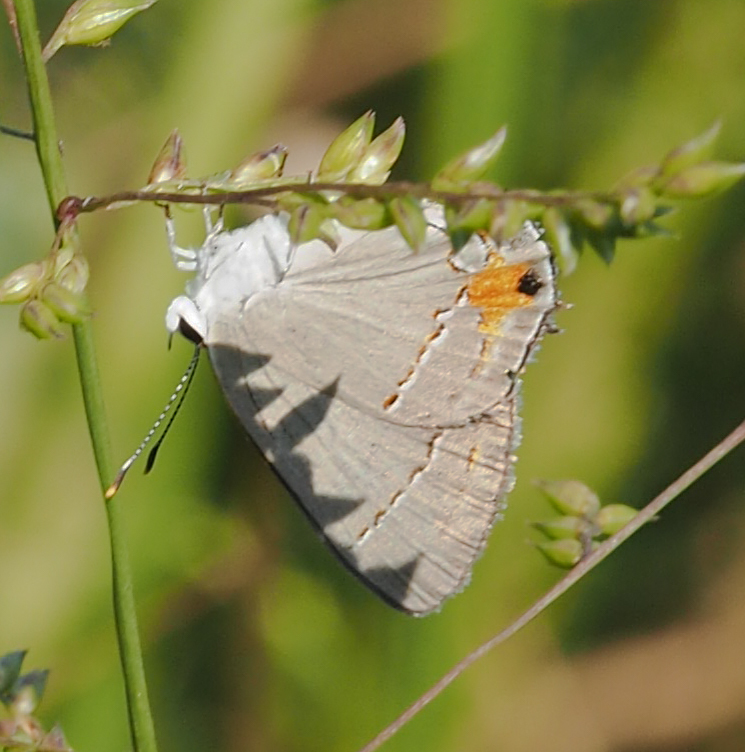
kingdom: Animalia
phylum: Arthropoda
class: Insecta
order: Lepidoptera
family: Lycaenidae
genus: Strymon
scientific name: Strymon melinus
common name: Gray hairstreak
